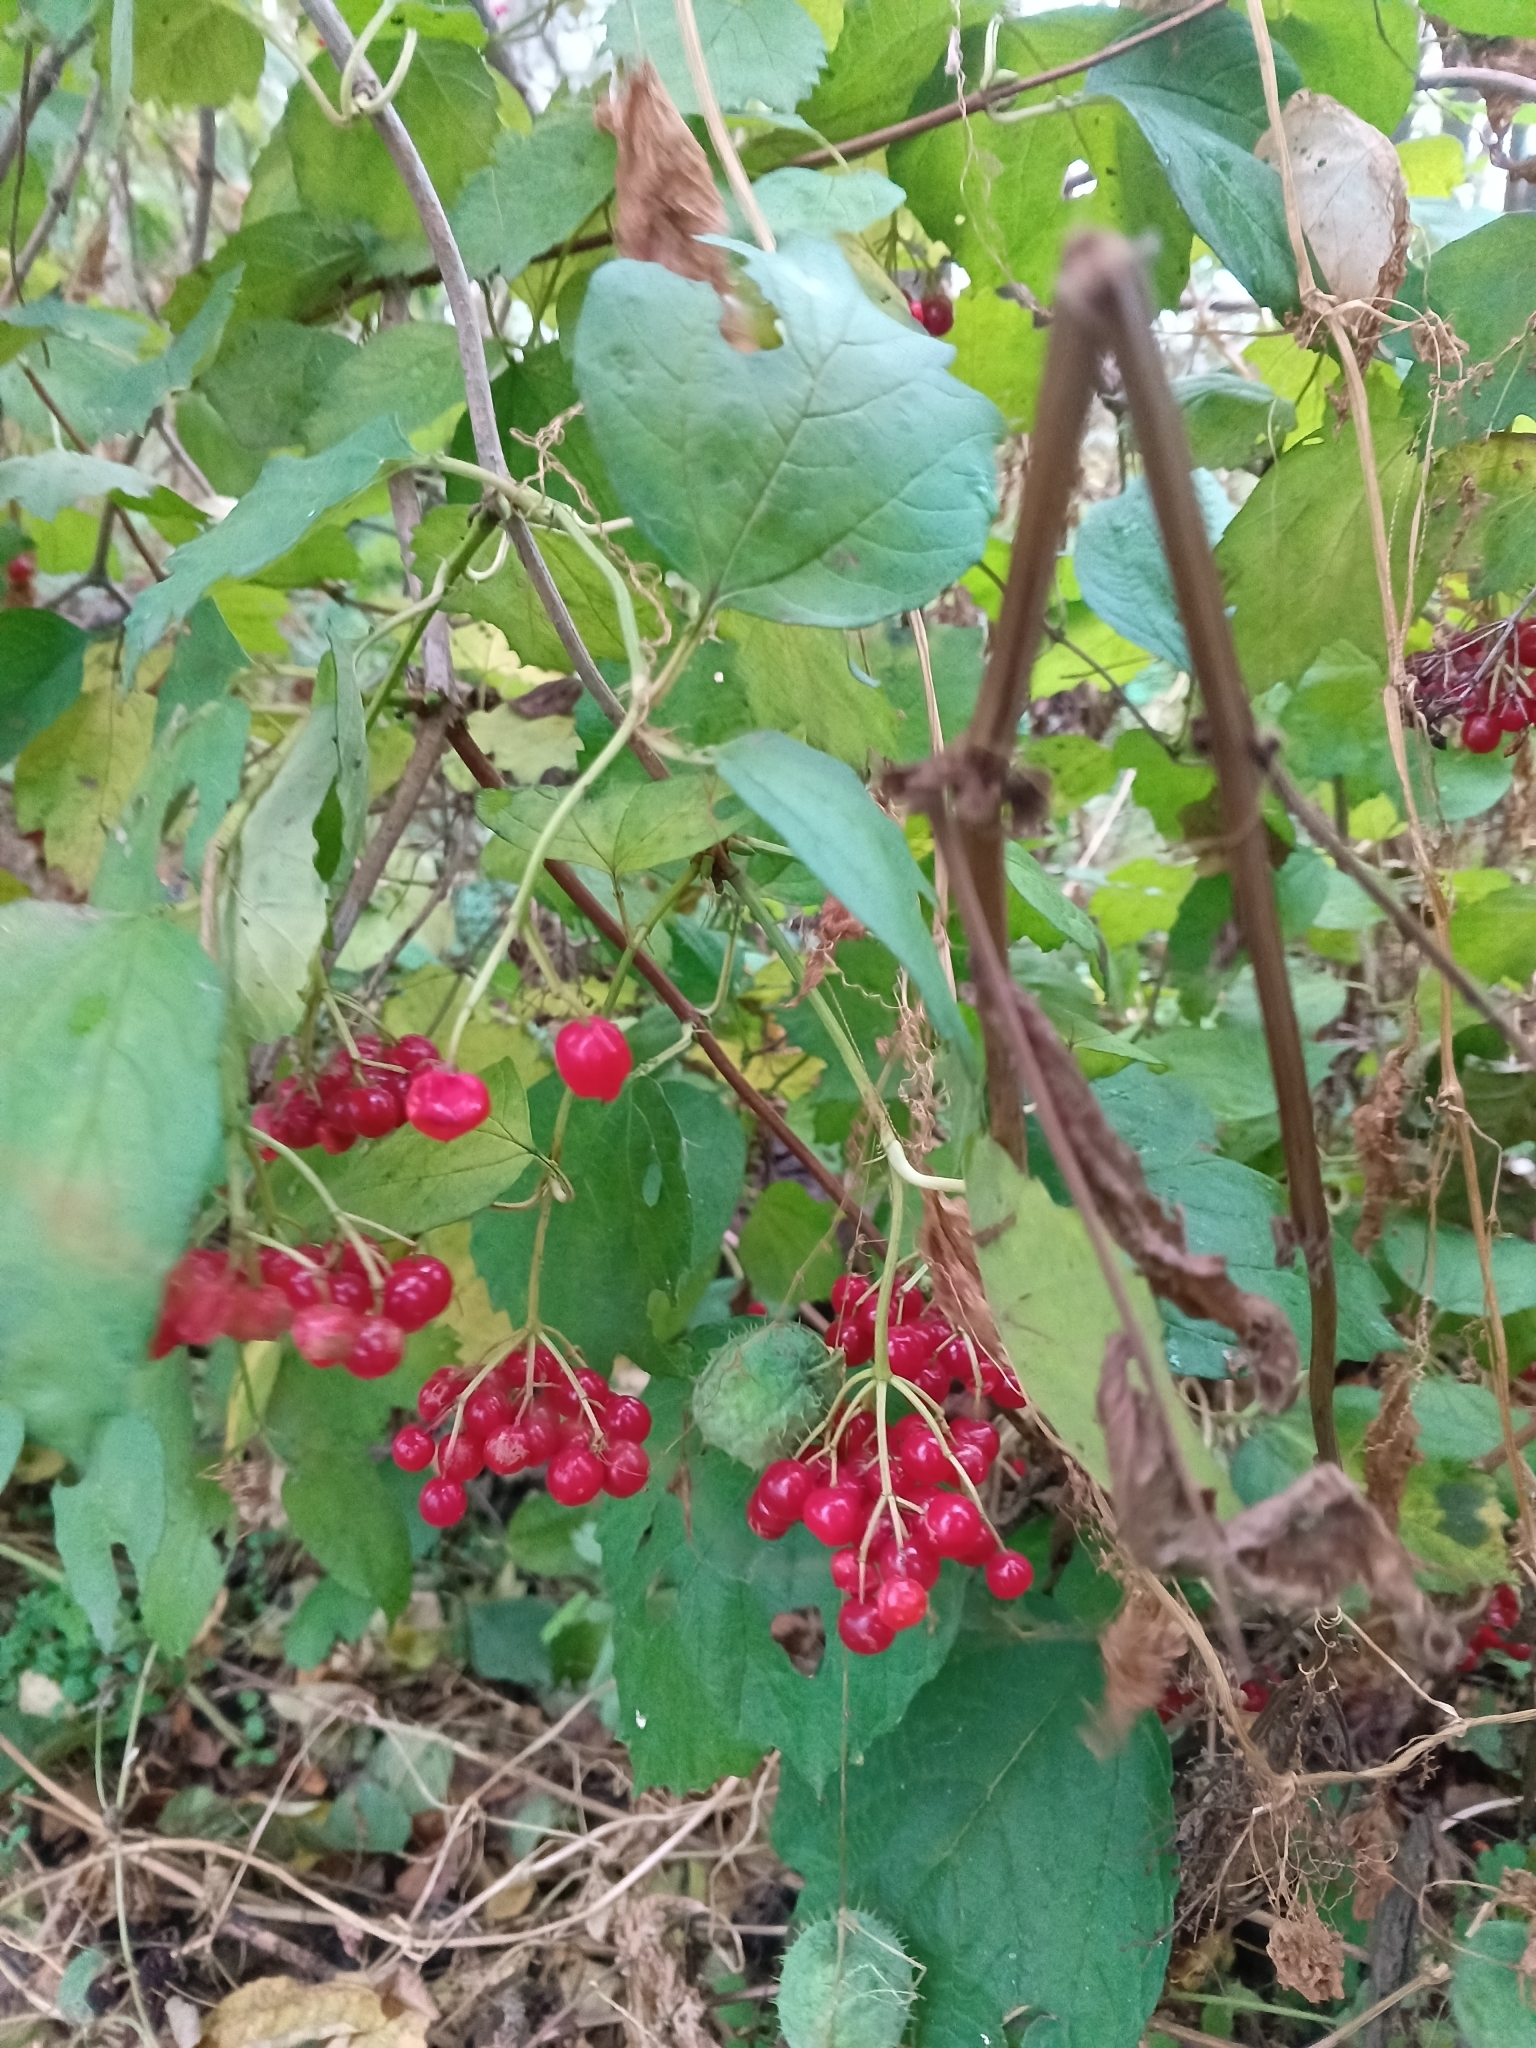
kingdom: Plantae
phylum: Tracheophyta
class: Magnoliopsida
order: Dipsacales
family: Viburnaceae
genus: Viburnum
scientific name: Viburnum opulus
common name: Guelder-rose
